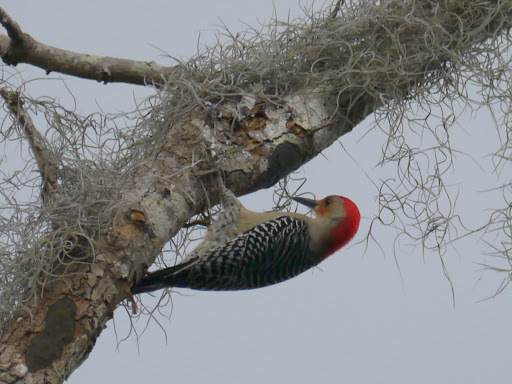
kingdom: Animalia
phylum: Chordata
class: Aves
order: Piciformes
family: Picidae
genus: Melanerpes
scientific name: Melanerpes carolinus
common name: Red-bellied woodpecker
